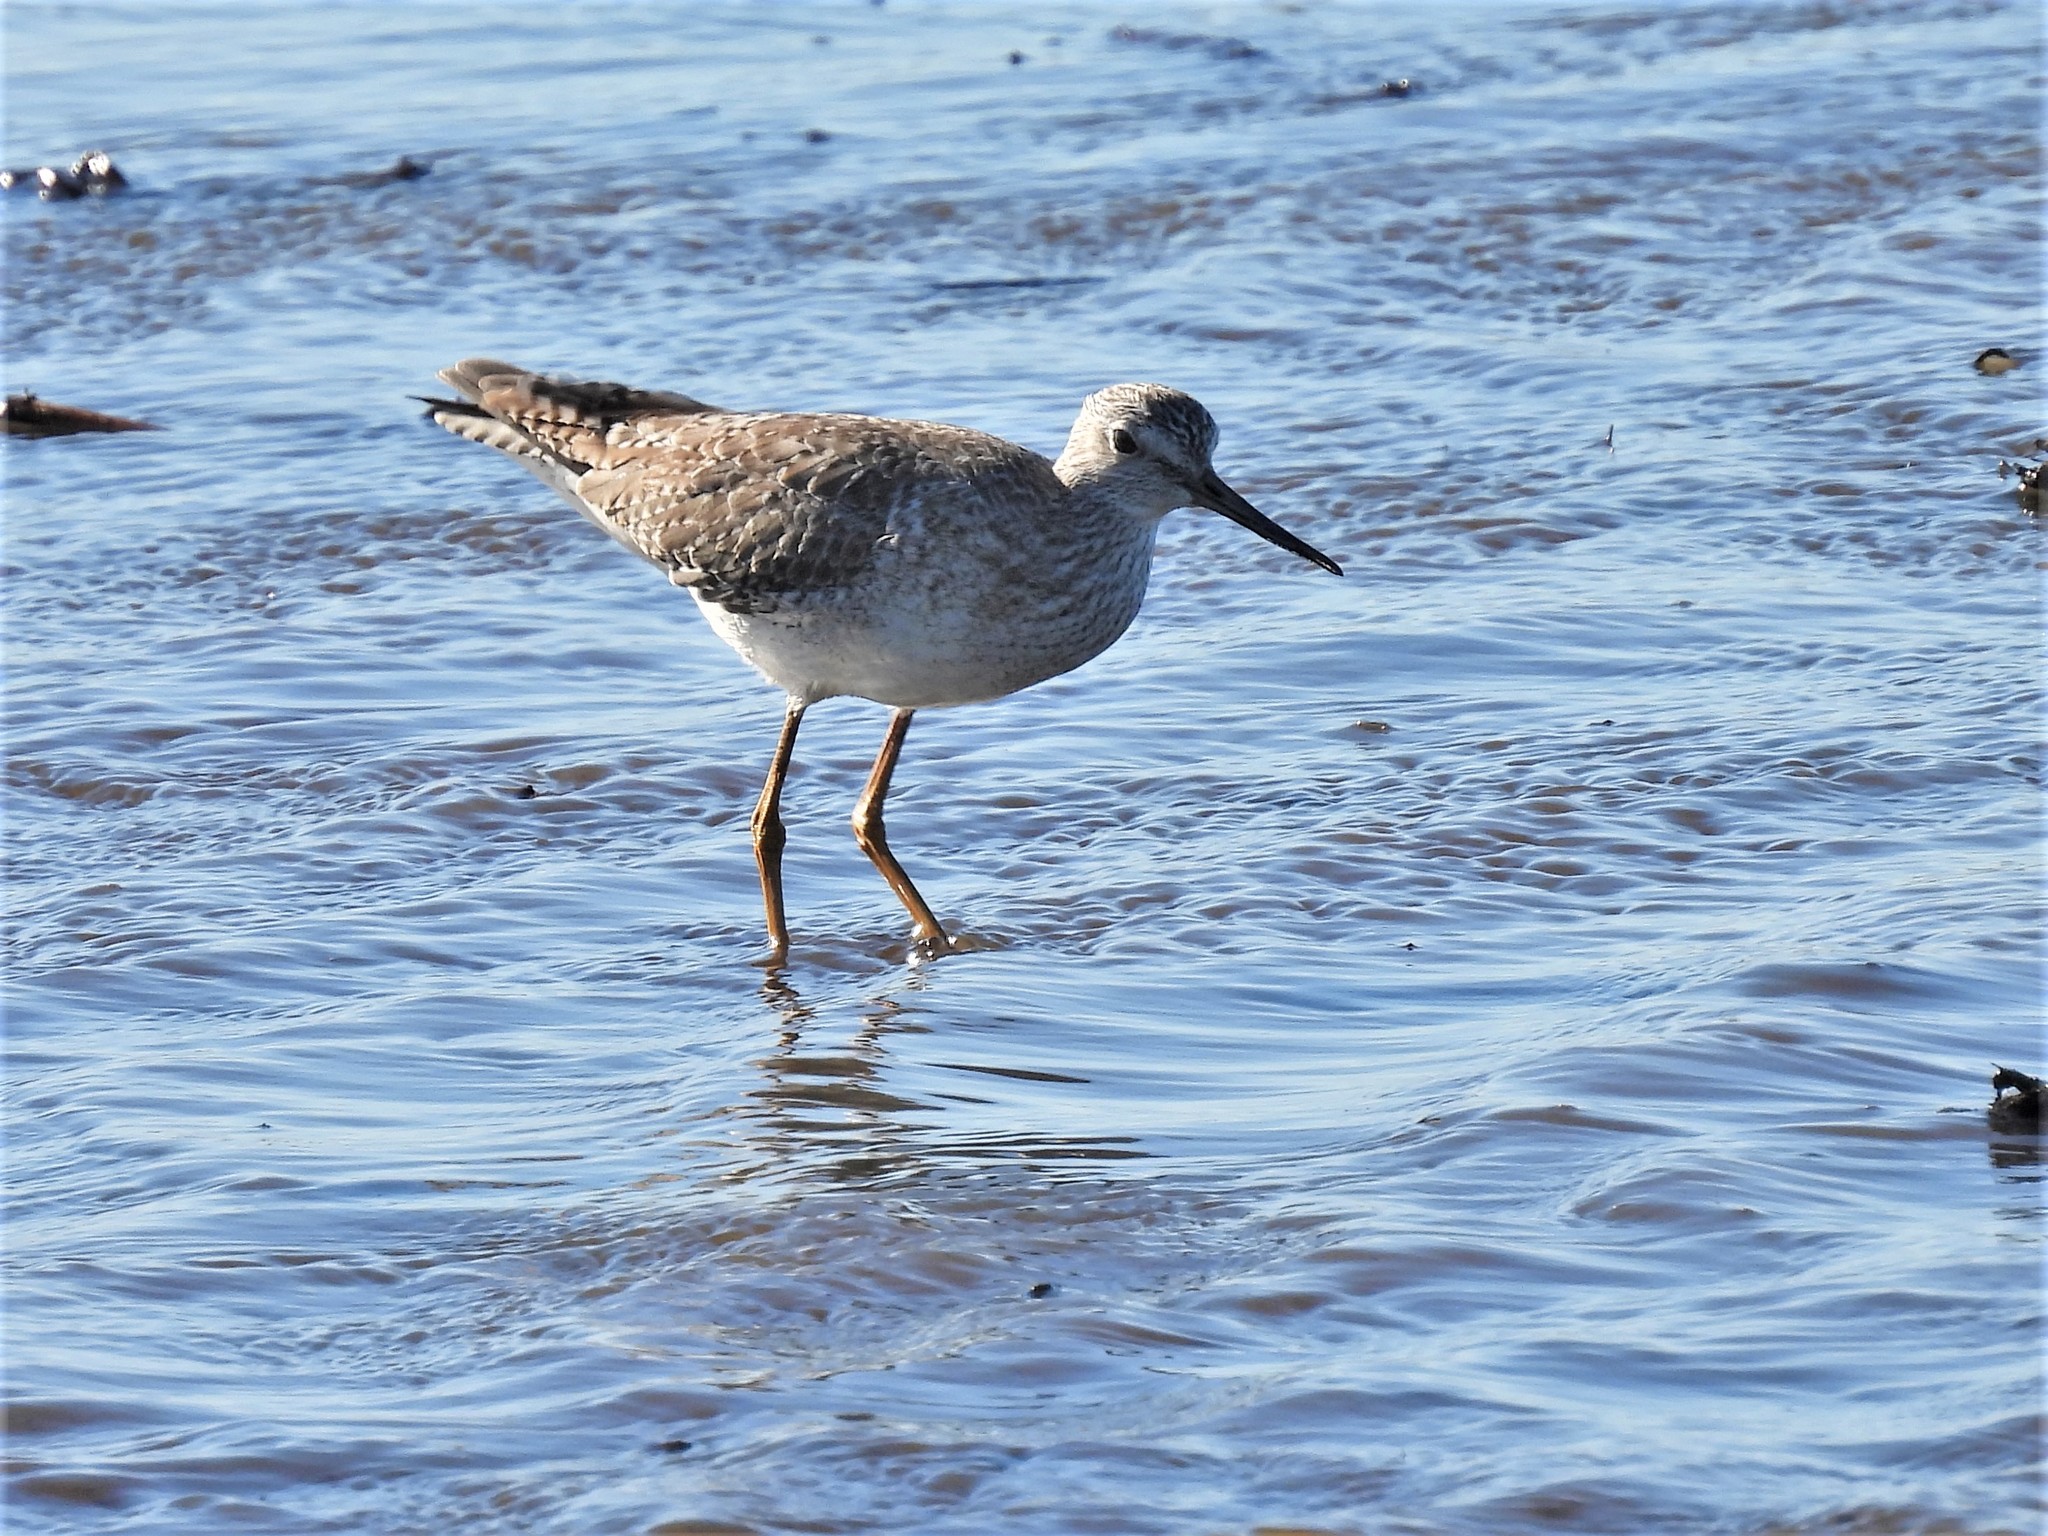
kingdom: Animalia
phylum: Chordata
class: Aves
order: Charadriiformes
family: Scolopacidae
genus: Tringa
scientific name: Tringa melanoleuca
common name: Greater yellowlegs
